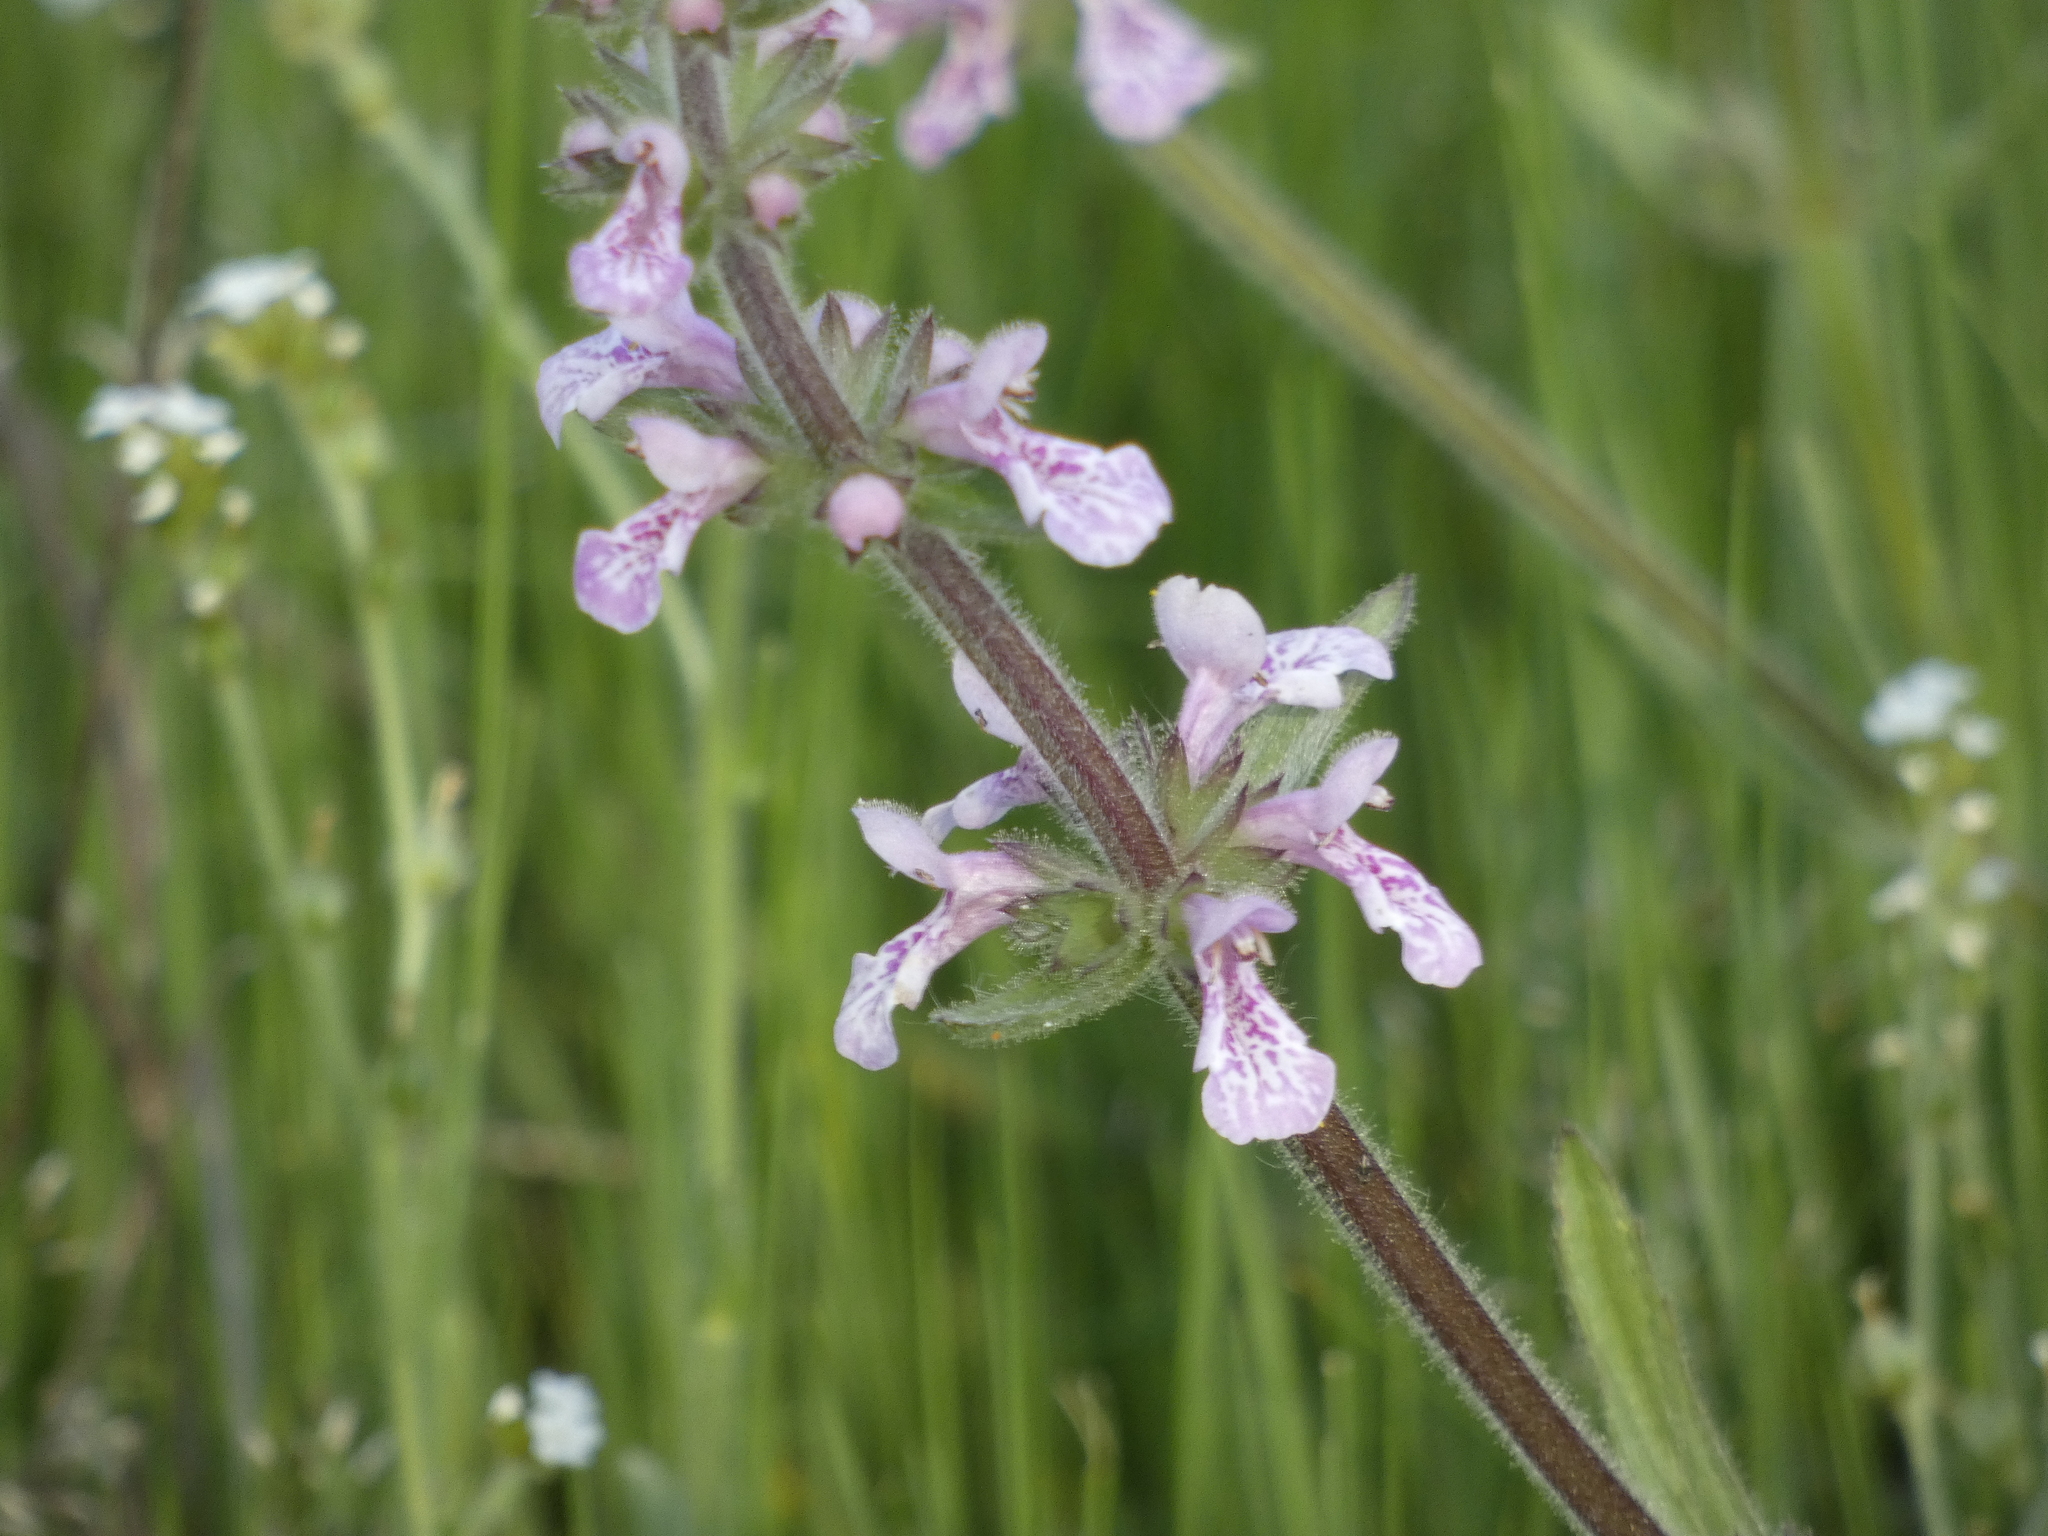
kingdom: Plantae
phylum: Tracheophyta
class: Magnoliopsida
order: Lamiales
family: Lamiaceae
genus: Stachys
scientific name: Stachys grandidentata
